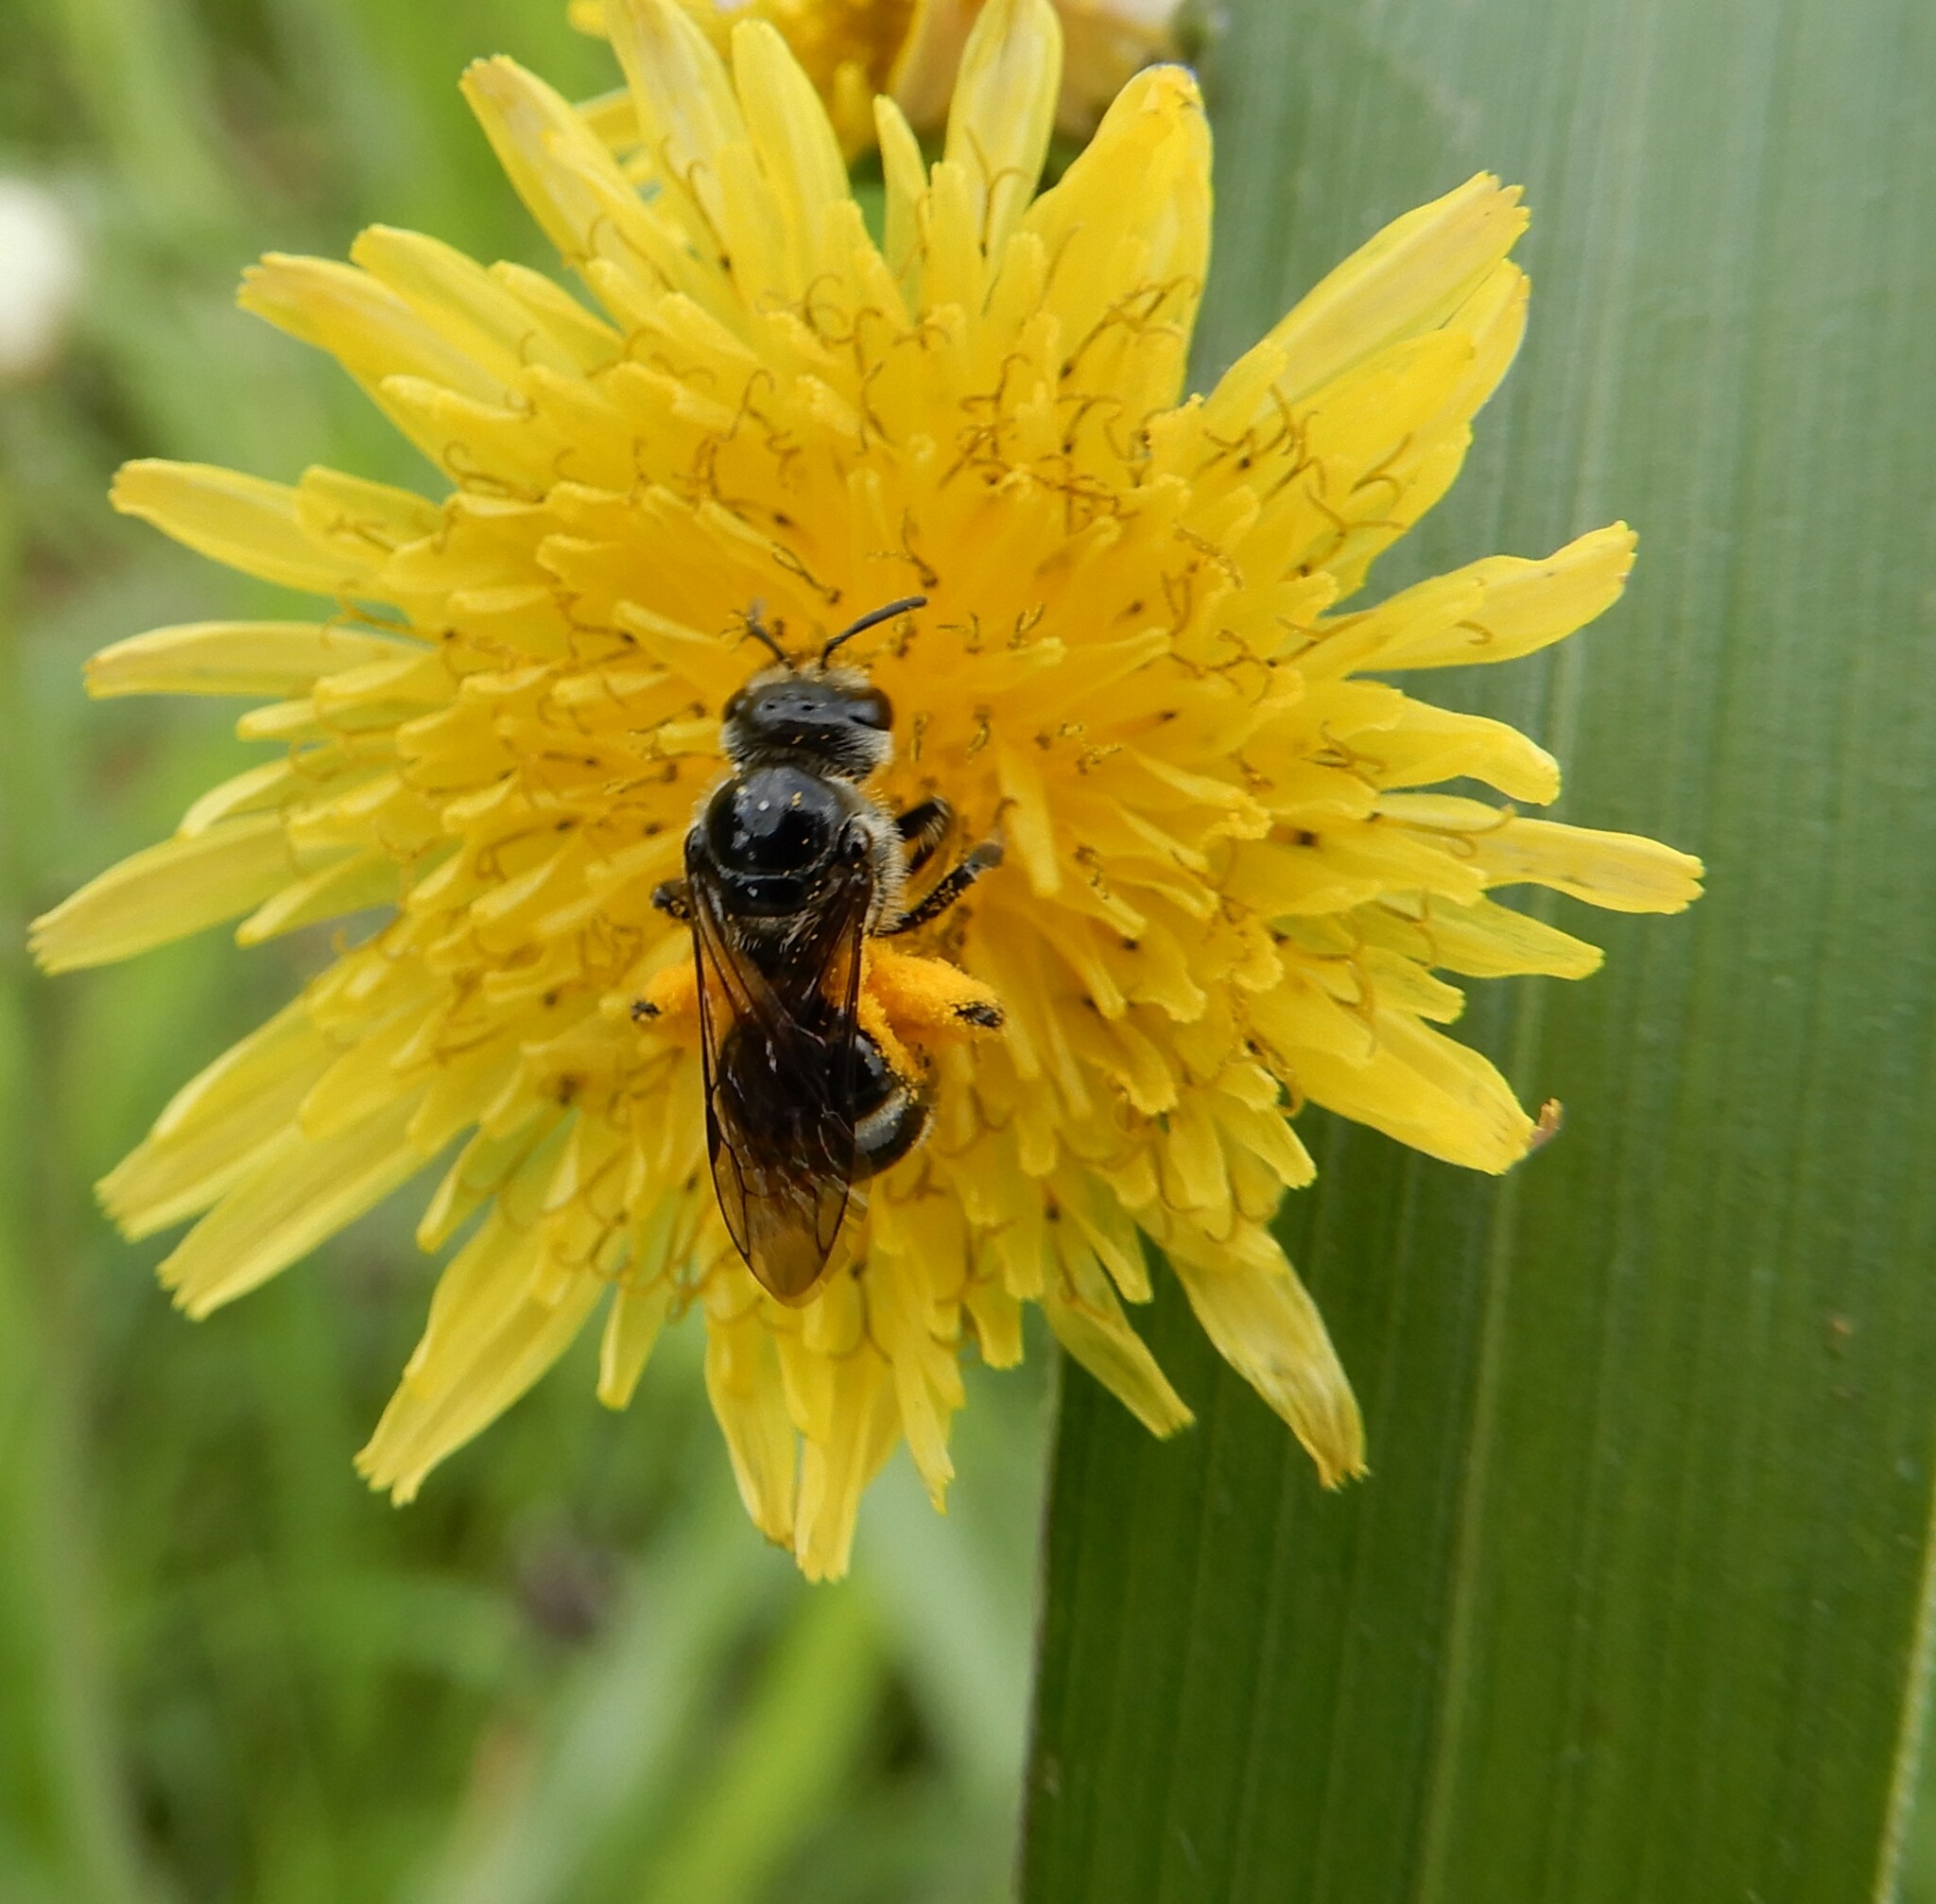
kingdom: Animalia
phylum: Arthropoda
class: Insecta
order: Hymenoptera
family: Halictidae
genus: Lasioglossum
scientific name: Lasioglossum albescens
